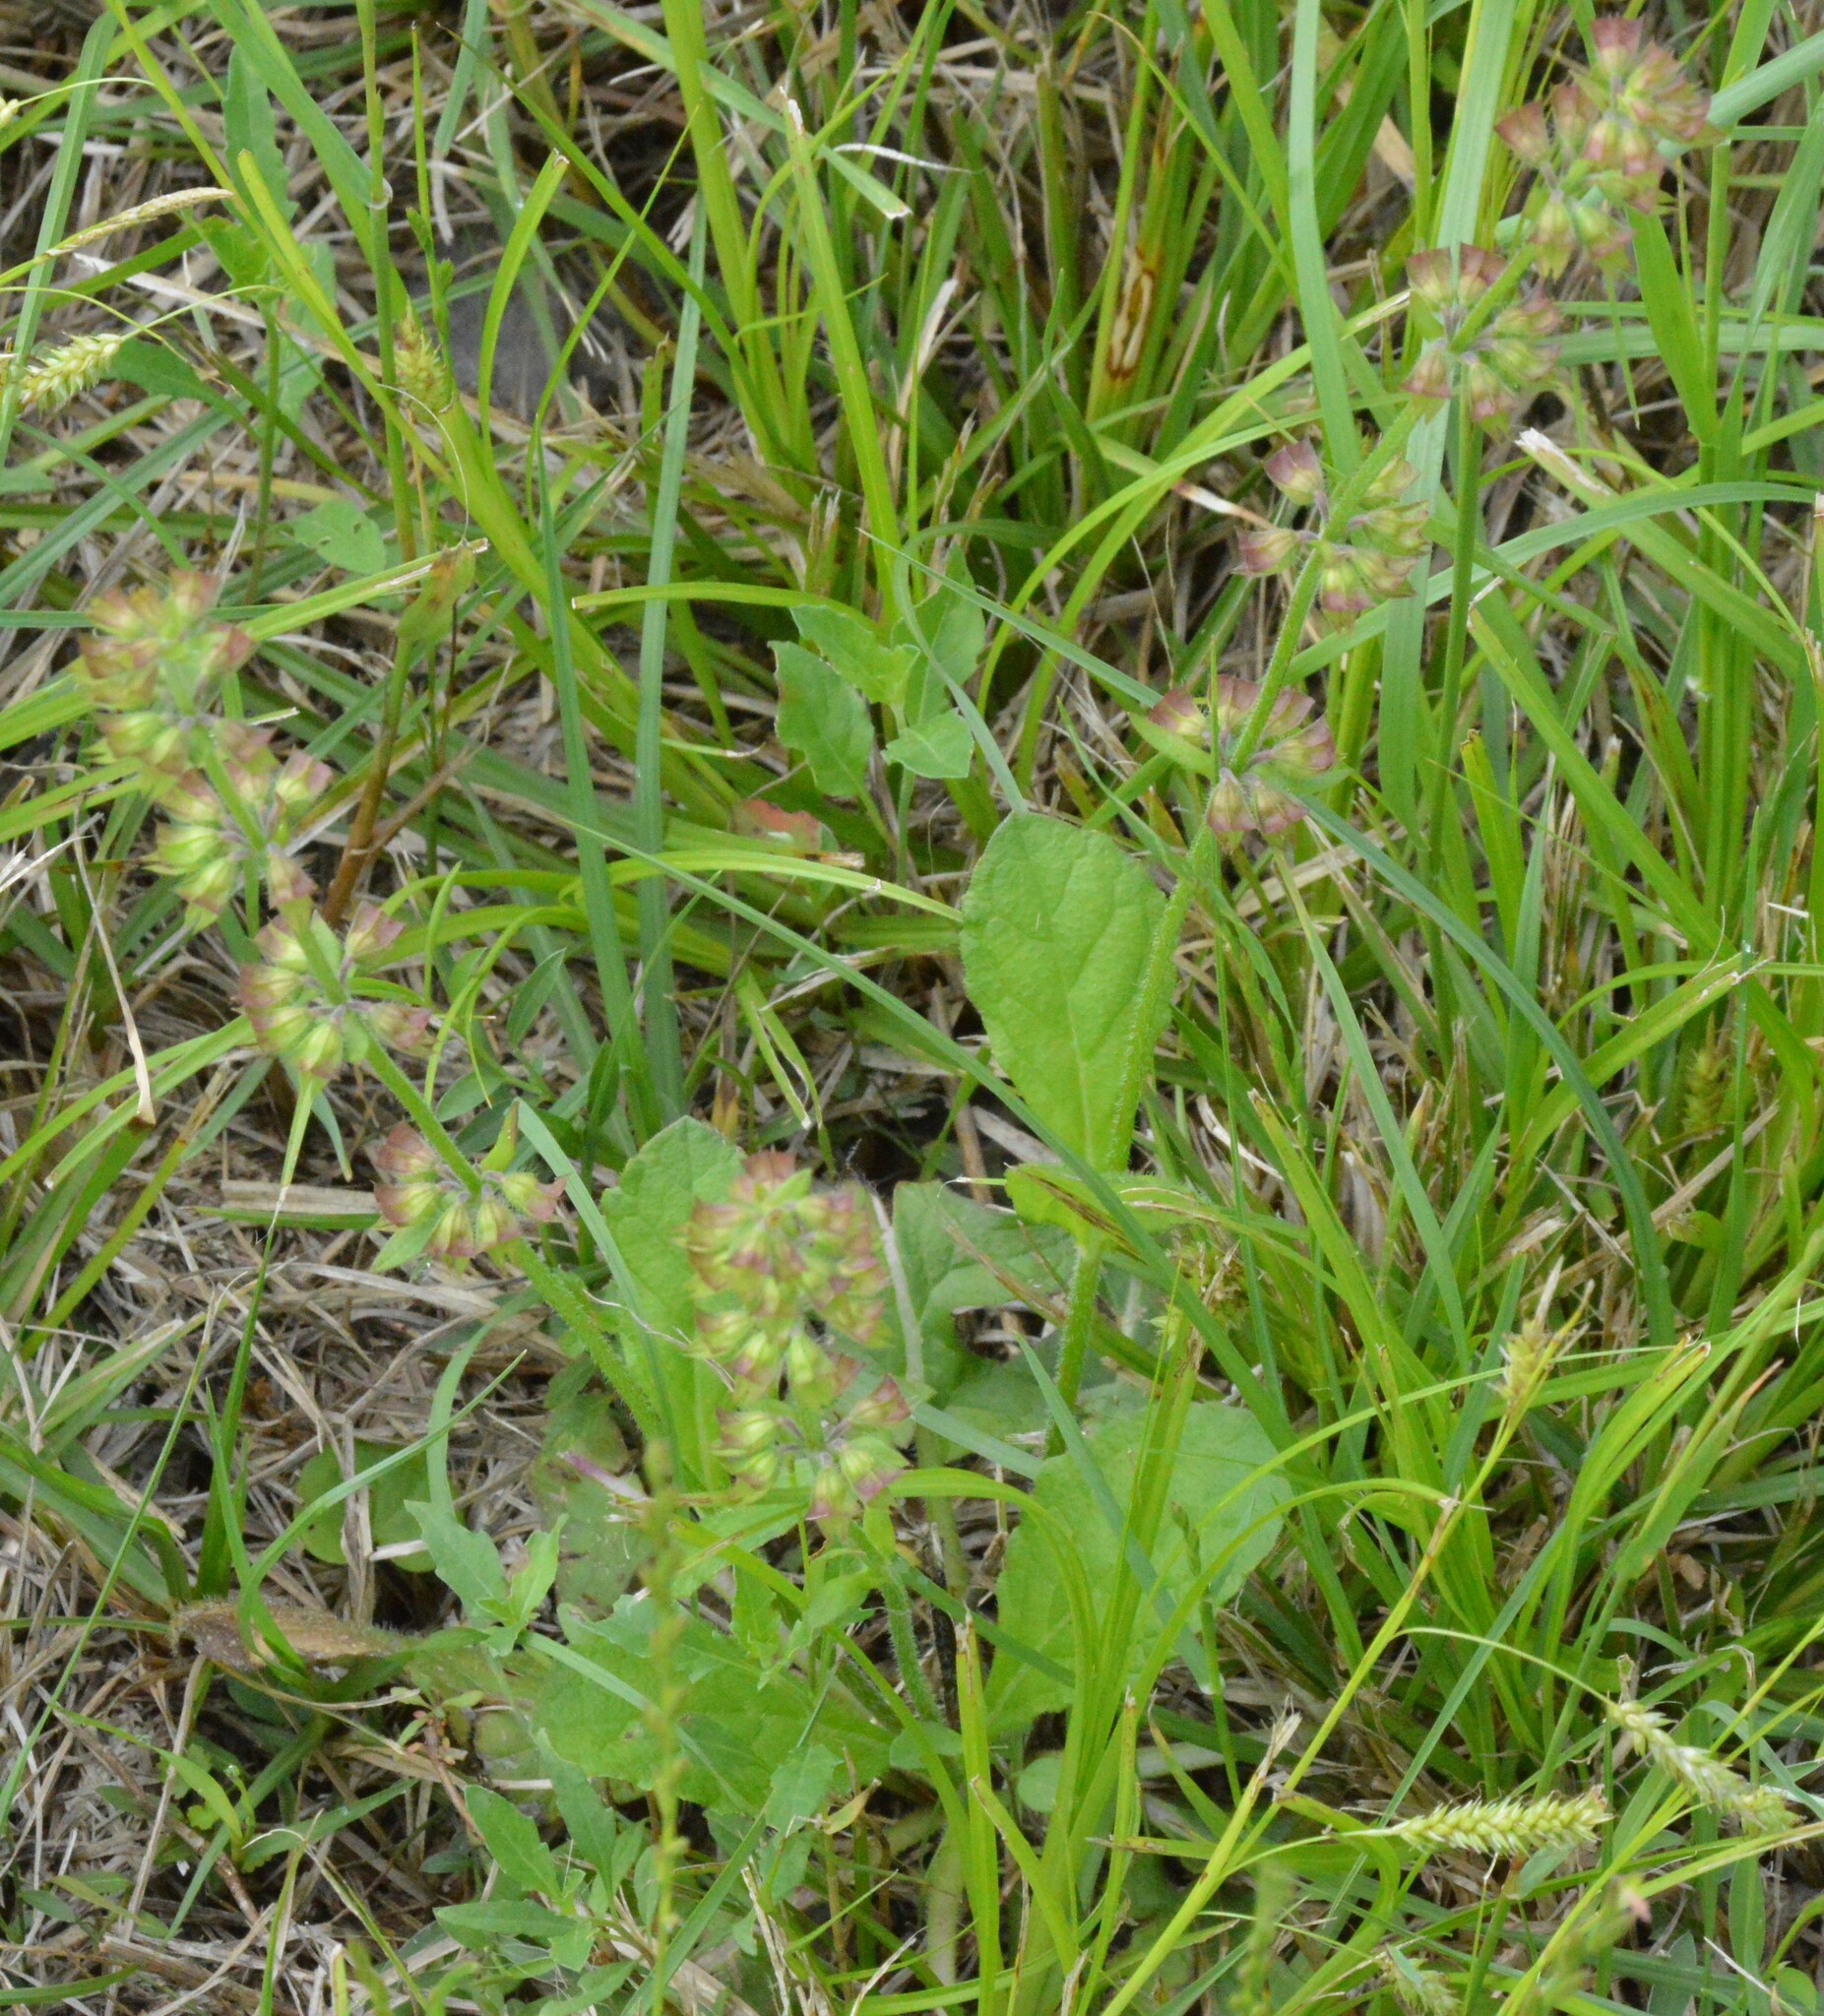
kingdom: Plantae
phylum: Tracheophyta
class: Magnoliopsida
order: Lamiales
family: Lamiaceae
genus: Salvia
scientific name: Salvia lyrata
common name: Cancerweed
